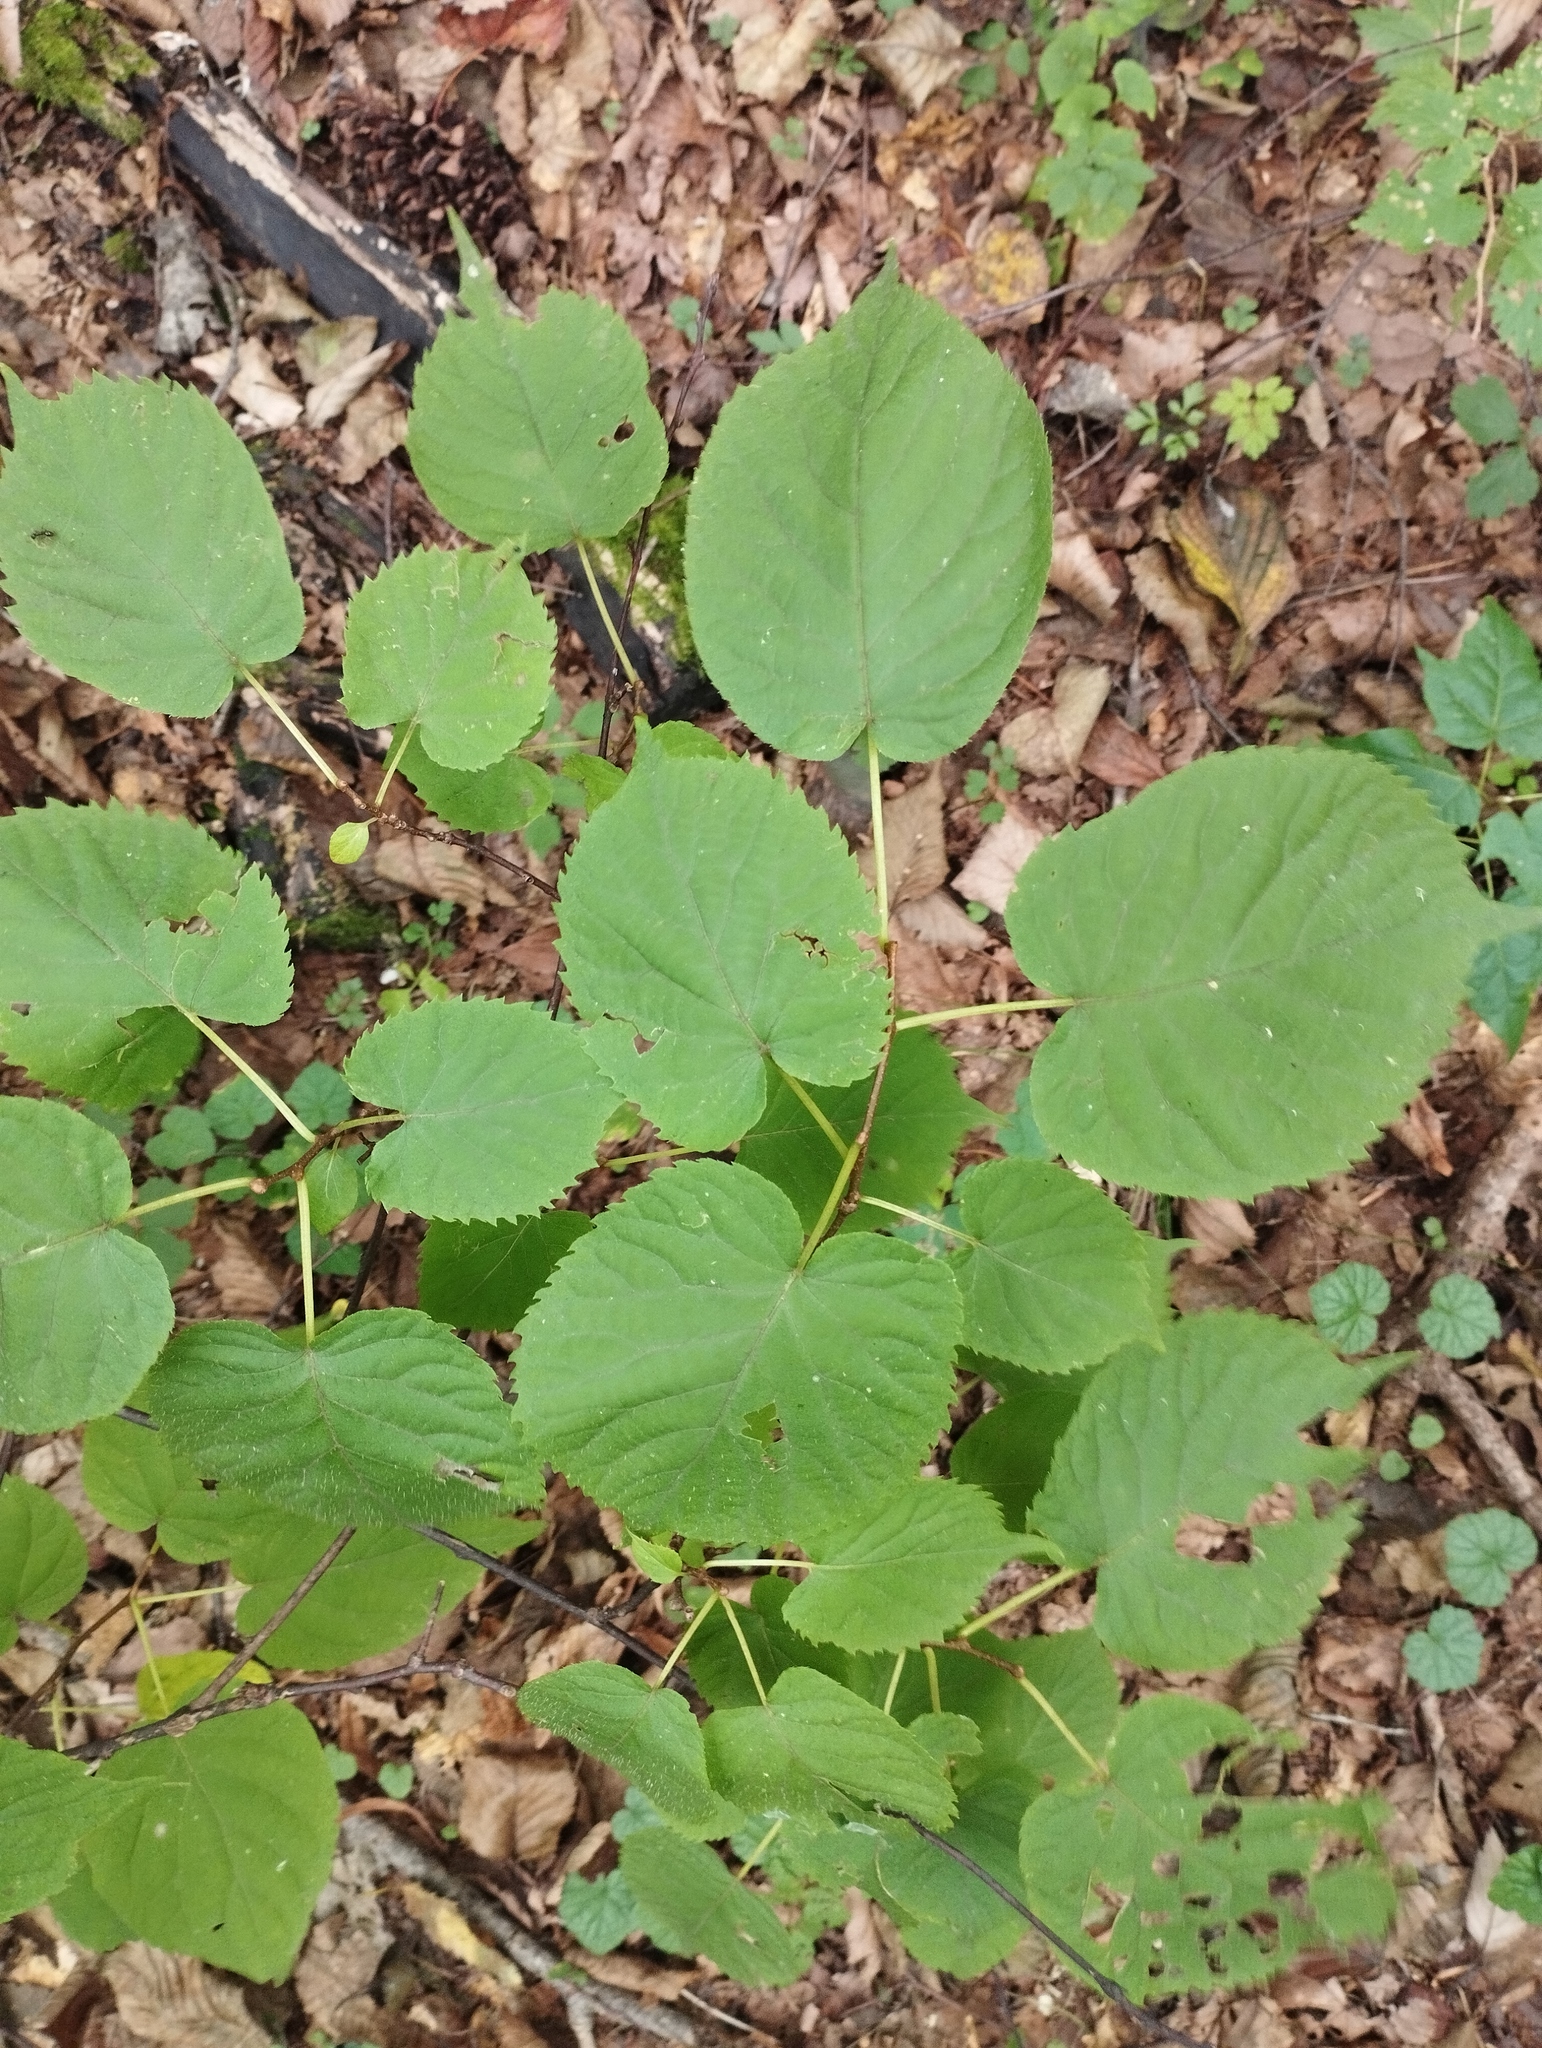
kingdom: Plantae
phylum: Tracheophyta
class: Magnoliopsida
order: Ericales
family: Actinidiaceae
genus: Actinidia
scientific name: Actinidia kolomikta
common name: Arctic beauty kiwi
